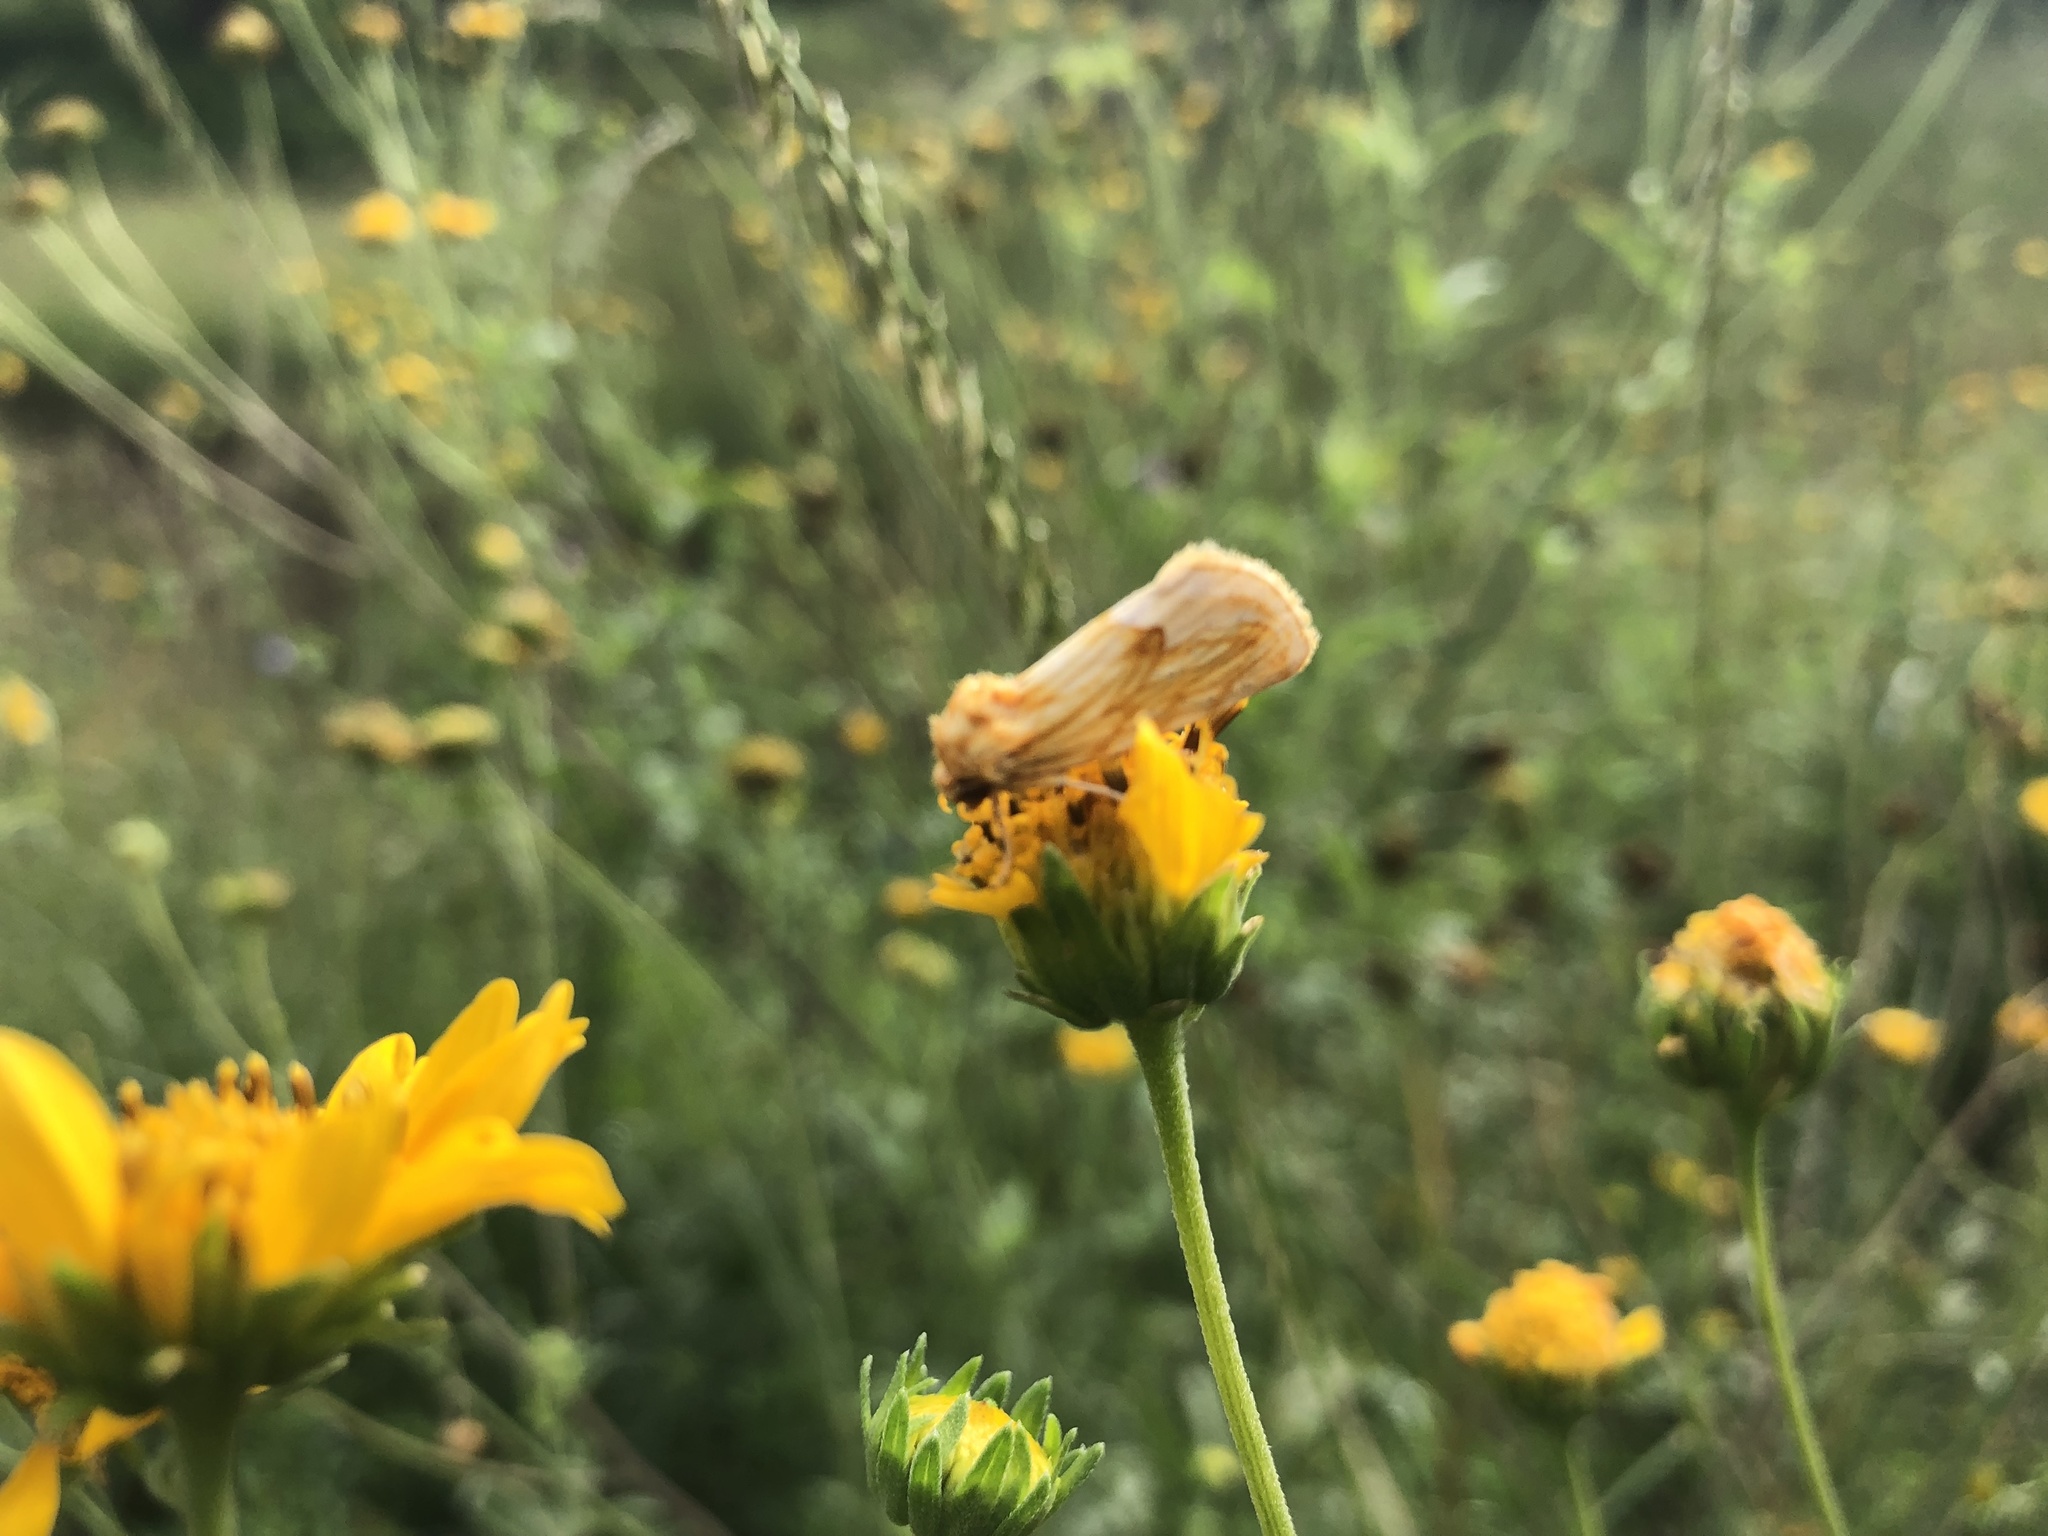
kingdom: Animalia
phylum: Arthropoda
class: Insecta
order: Lepidoptera
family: Noctuidae
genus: Cirrhophanus
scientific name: Cirrhophanus dyari
